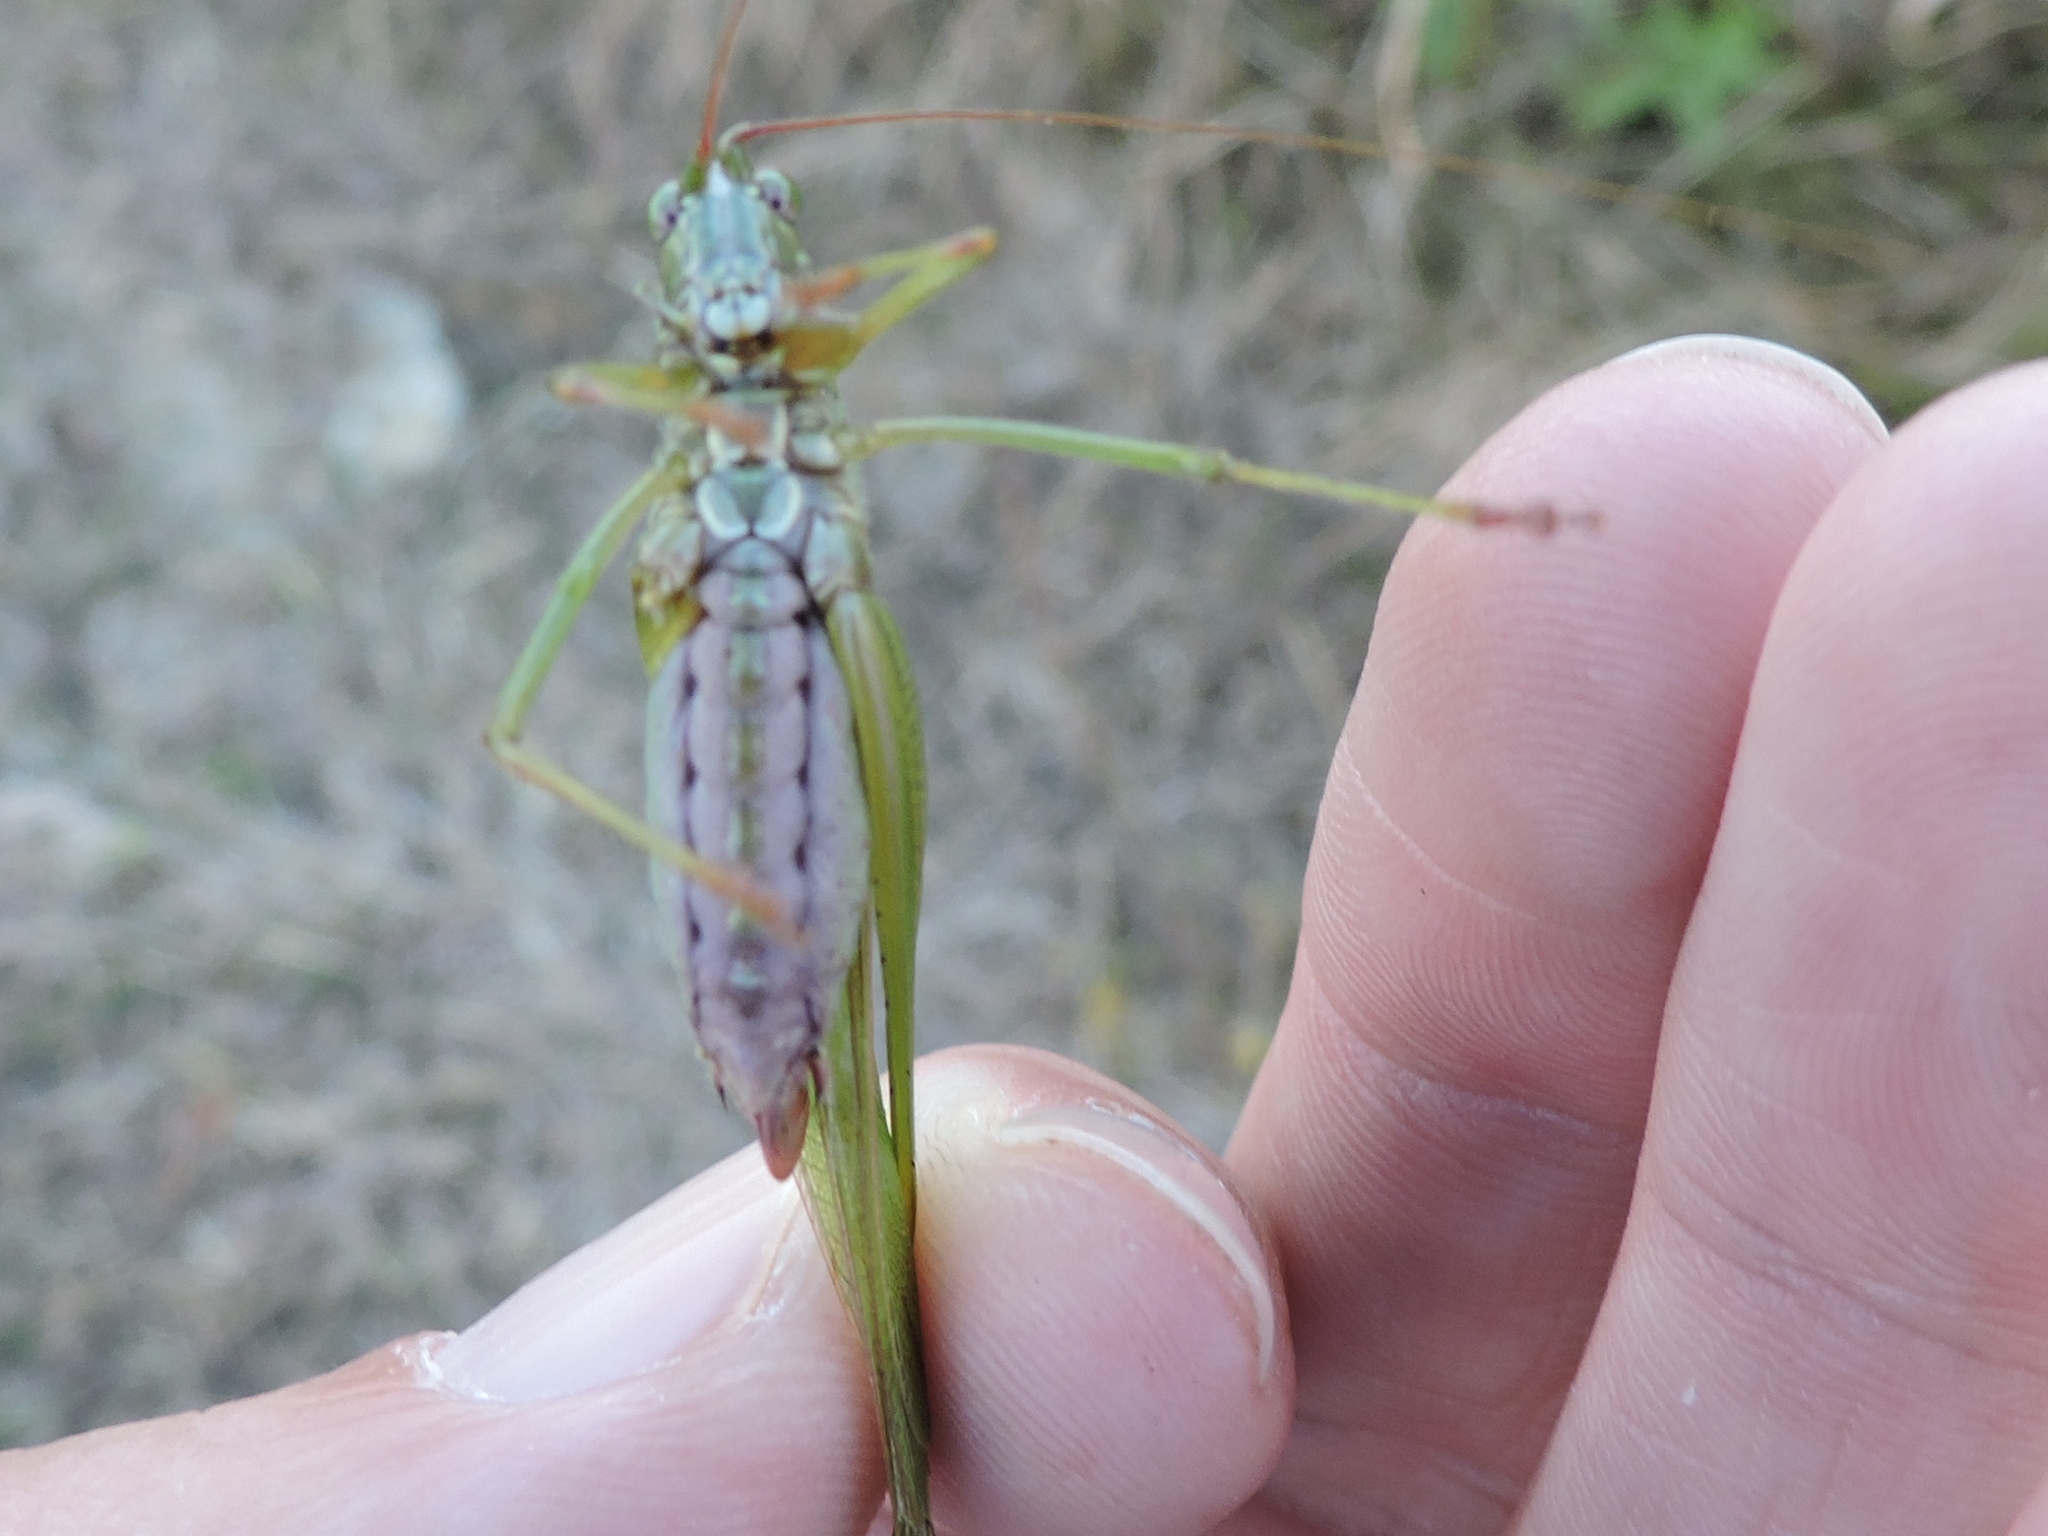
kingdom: Animalia
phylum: Arthropoda
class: Insecta
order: Orthoptera
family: Tettigoniidae
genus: Scudderia
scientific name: Scudderia furcata
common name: Fork-tailed bush katydid
